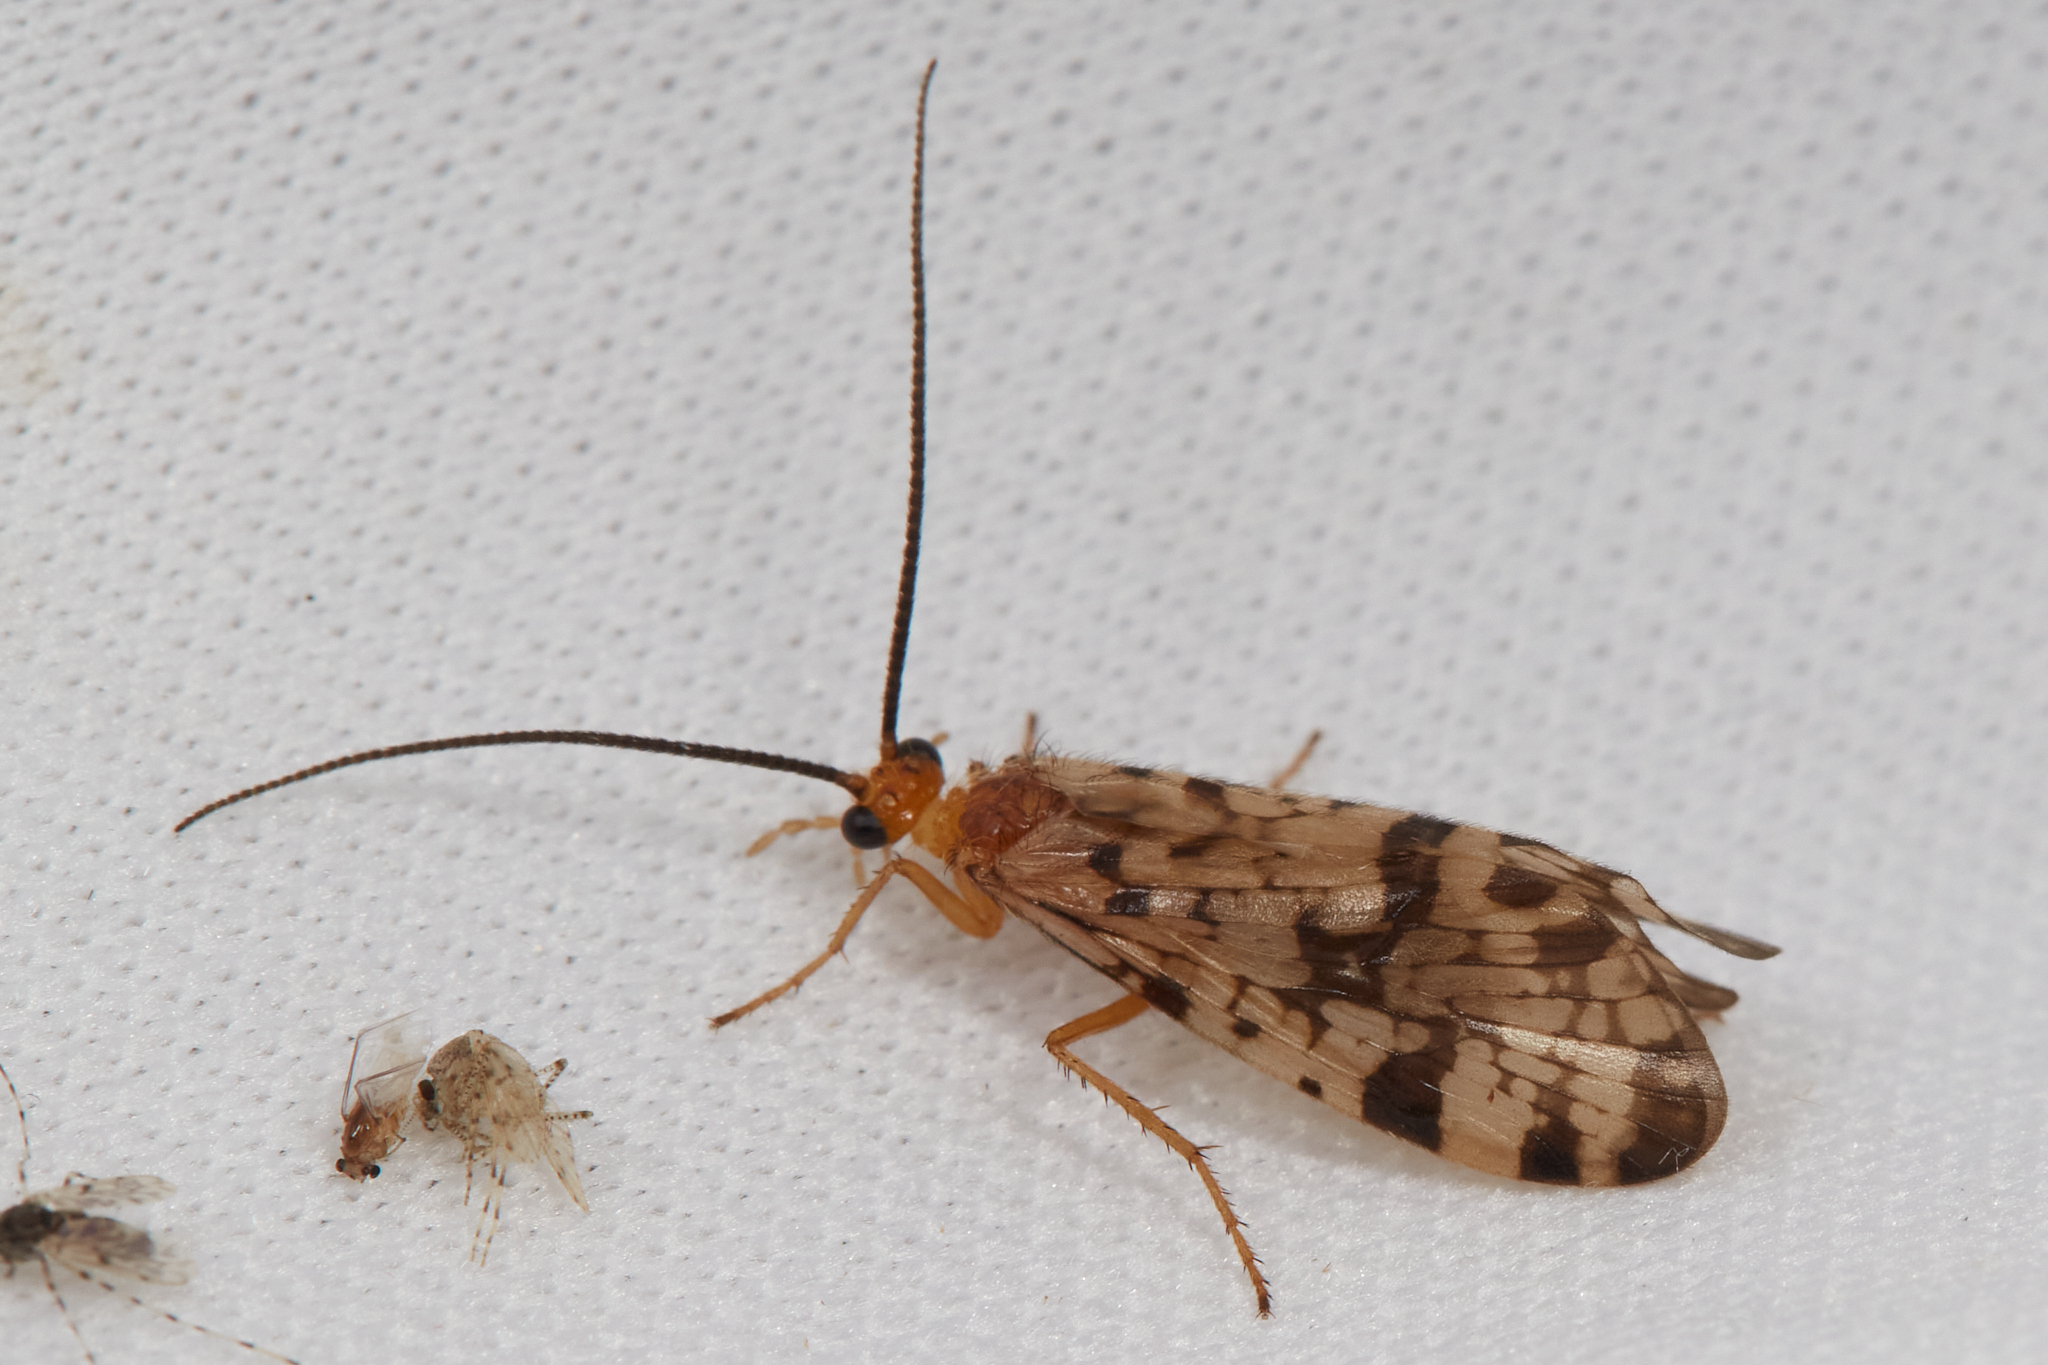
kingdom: Animalia
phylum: Arthropoda
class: Insecta
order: Trichoptera
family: Phryganeidae
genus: Banksiola
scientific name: Banksiola dossuaria
